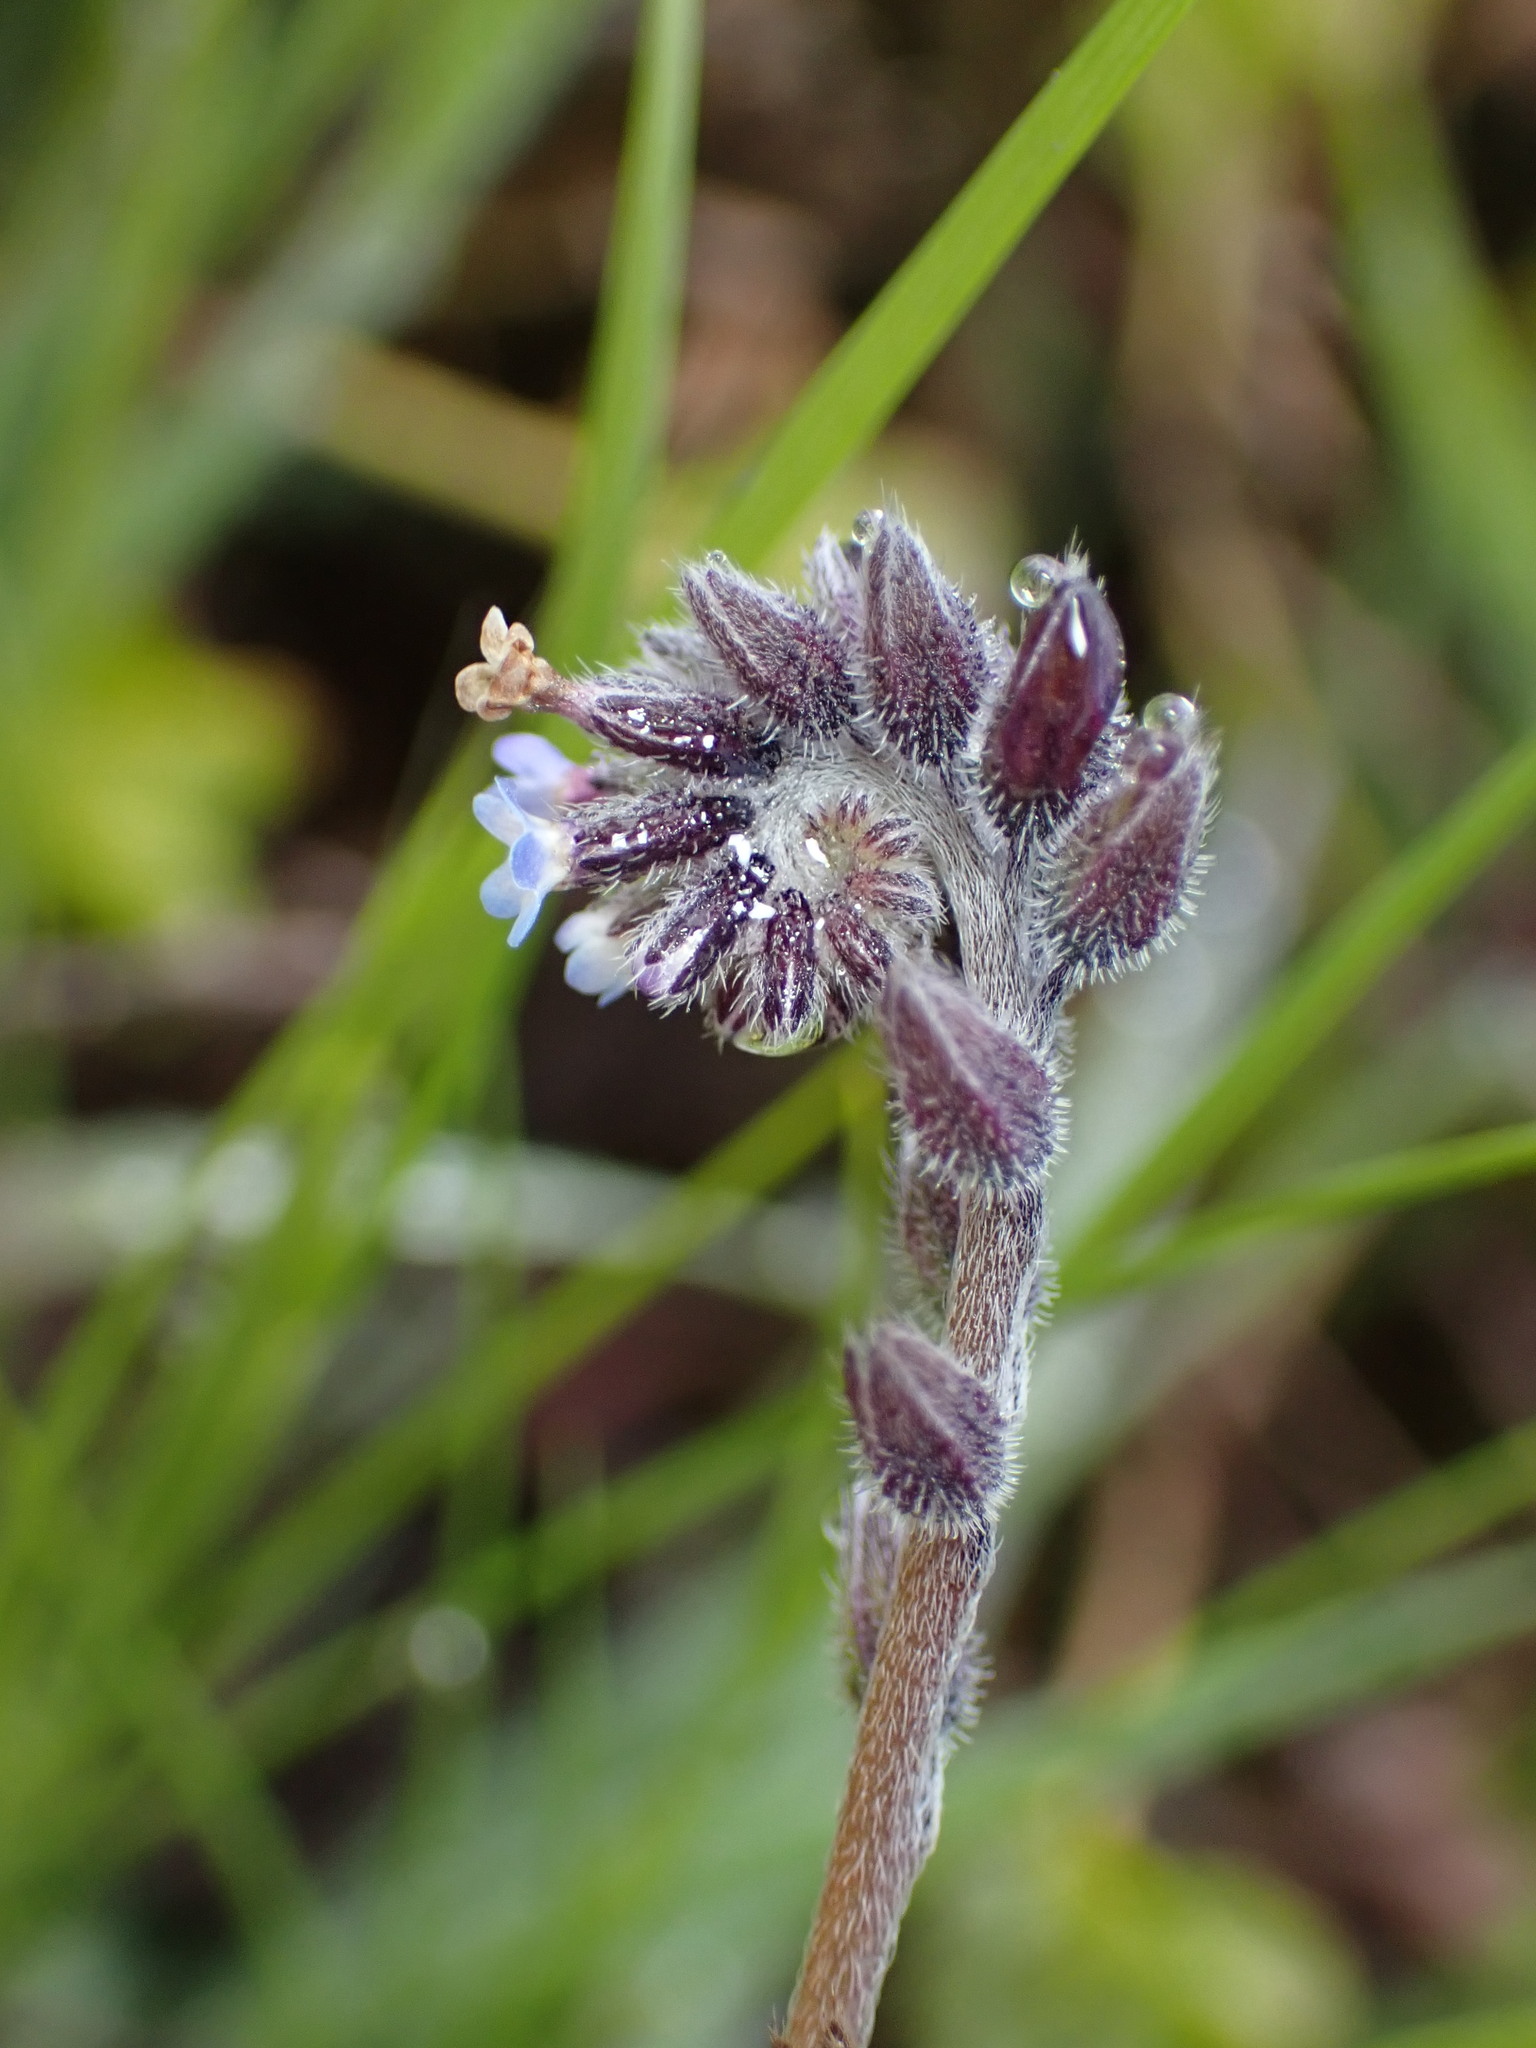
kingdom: Plantae
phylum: Tracheophyta
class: Magnoliopsida
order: Boraginales
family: Boraginaceae
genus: Myosotis
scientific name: Myosotis discolor
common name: Changing forget-me-not
